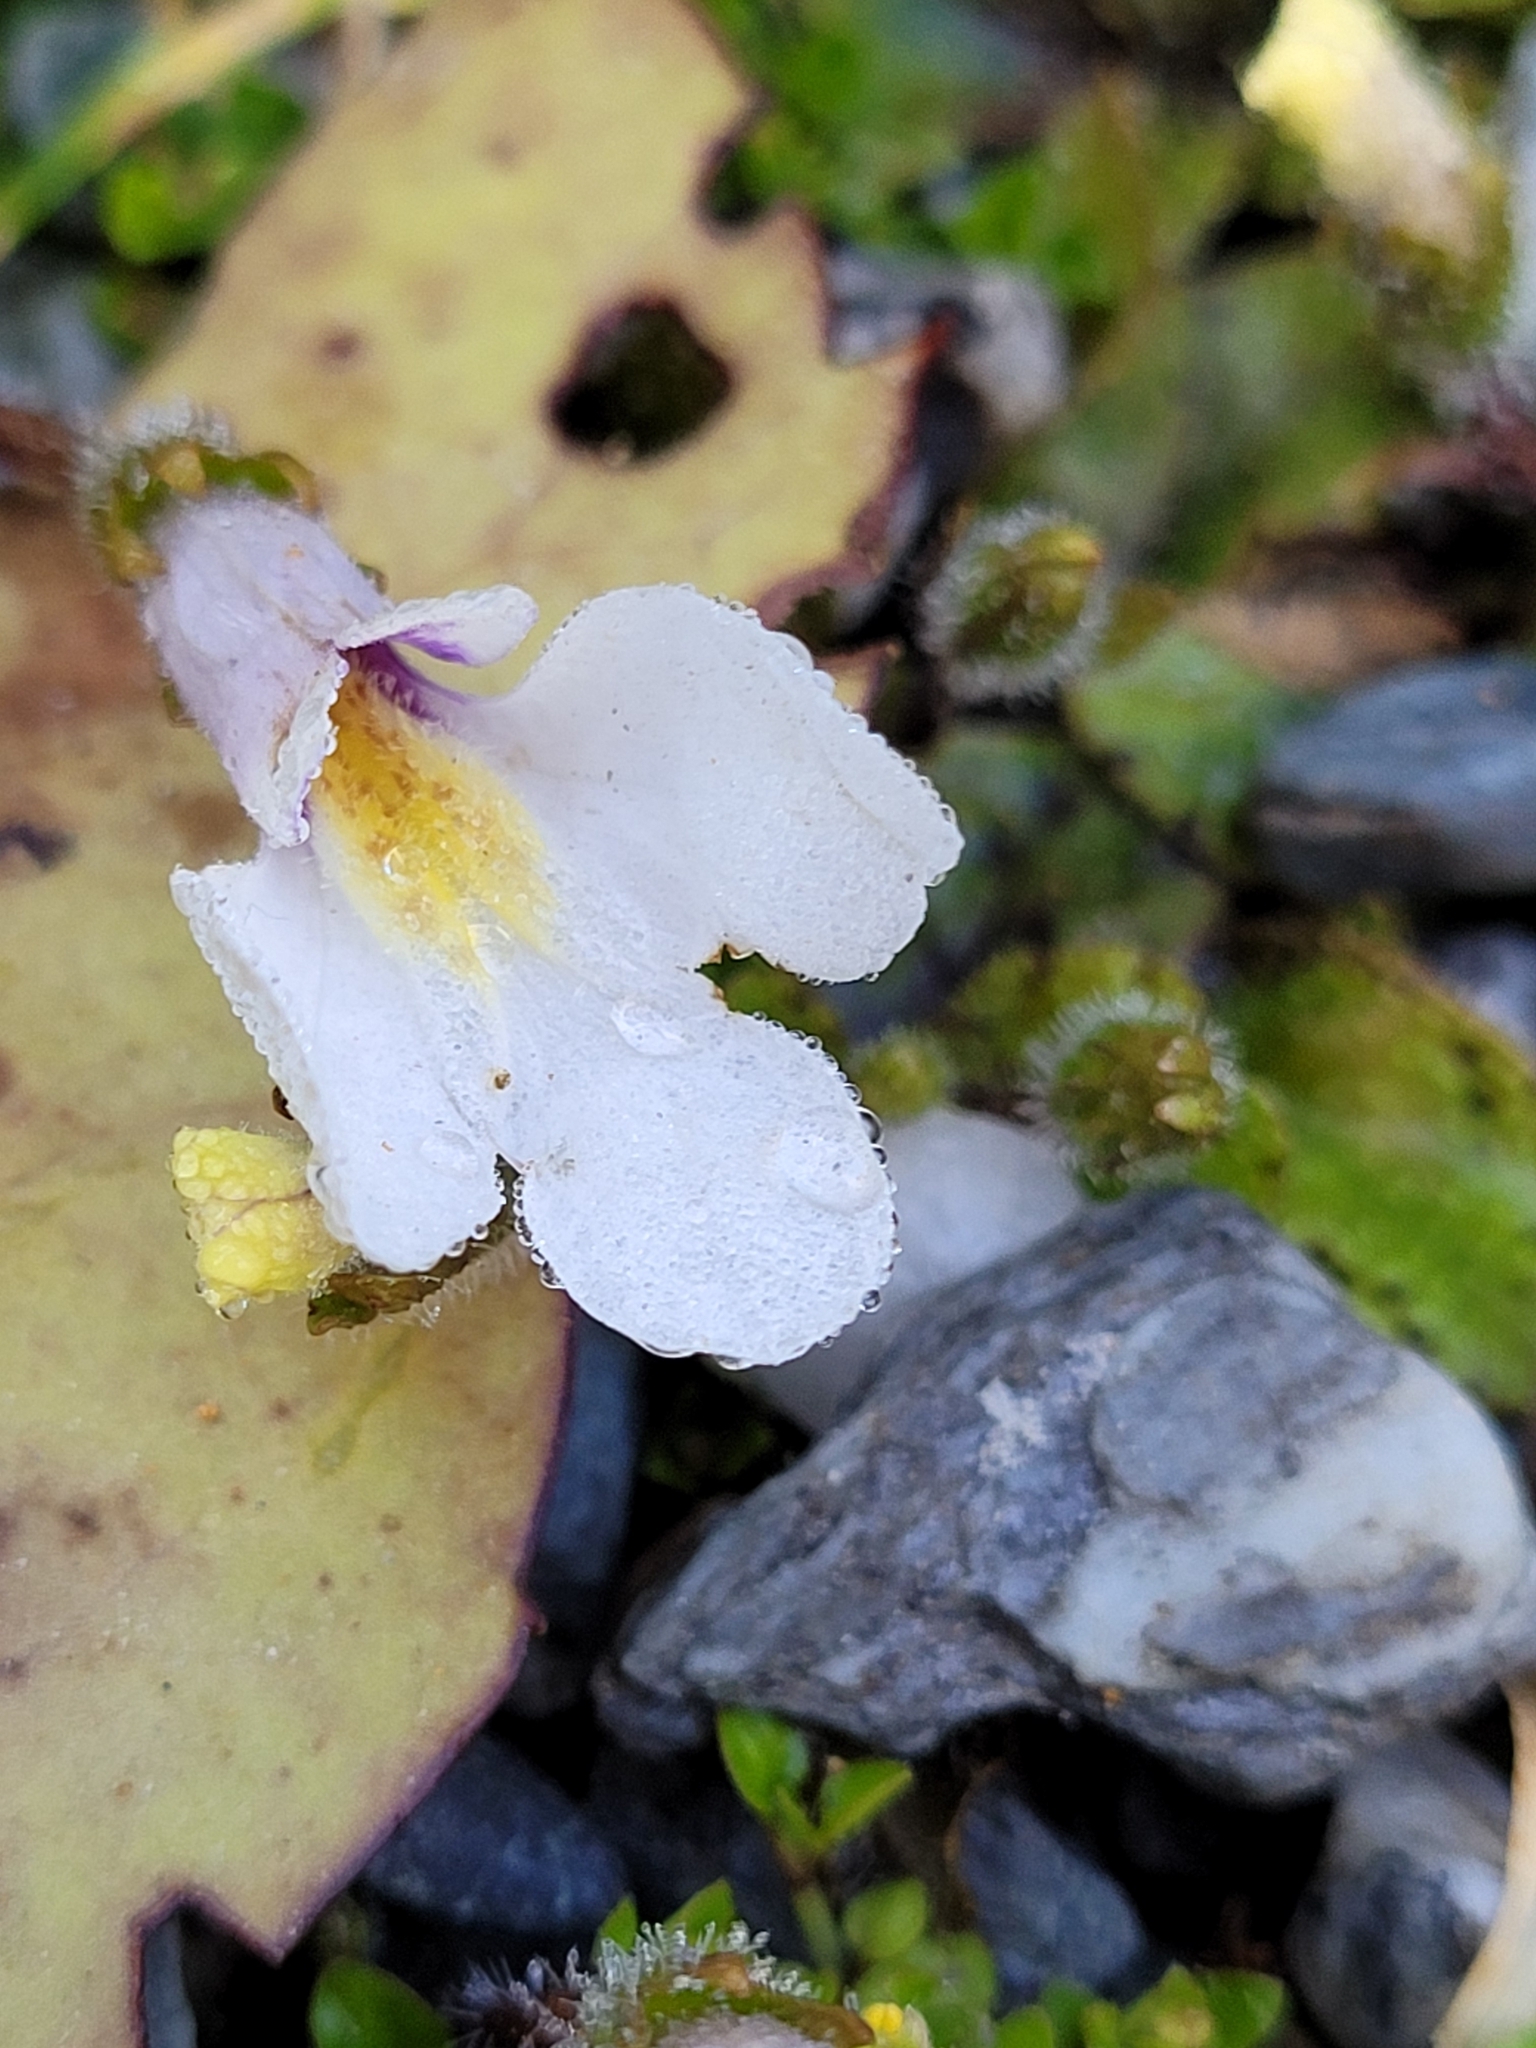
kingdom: Plantae
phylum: Tracheophyta
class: Magnoliopsida
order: Lamiales
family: Mazaceae
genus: Mazus
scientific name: Mazus radicans
